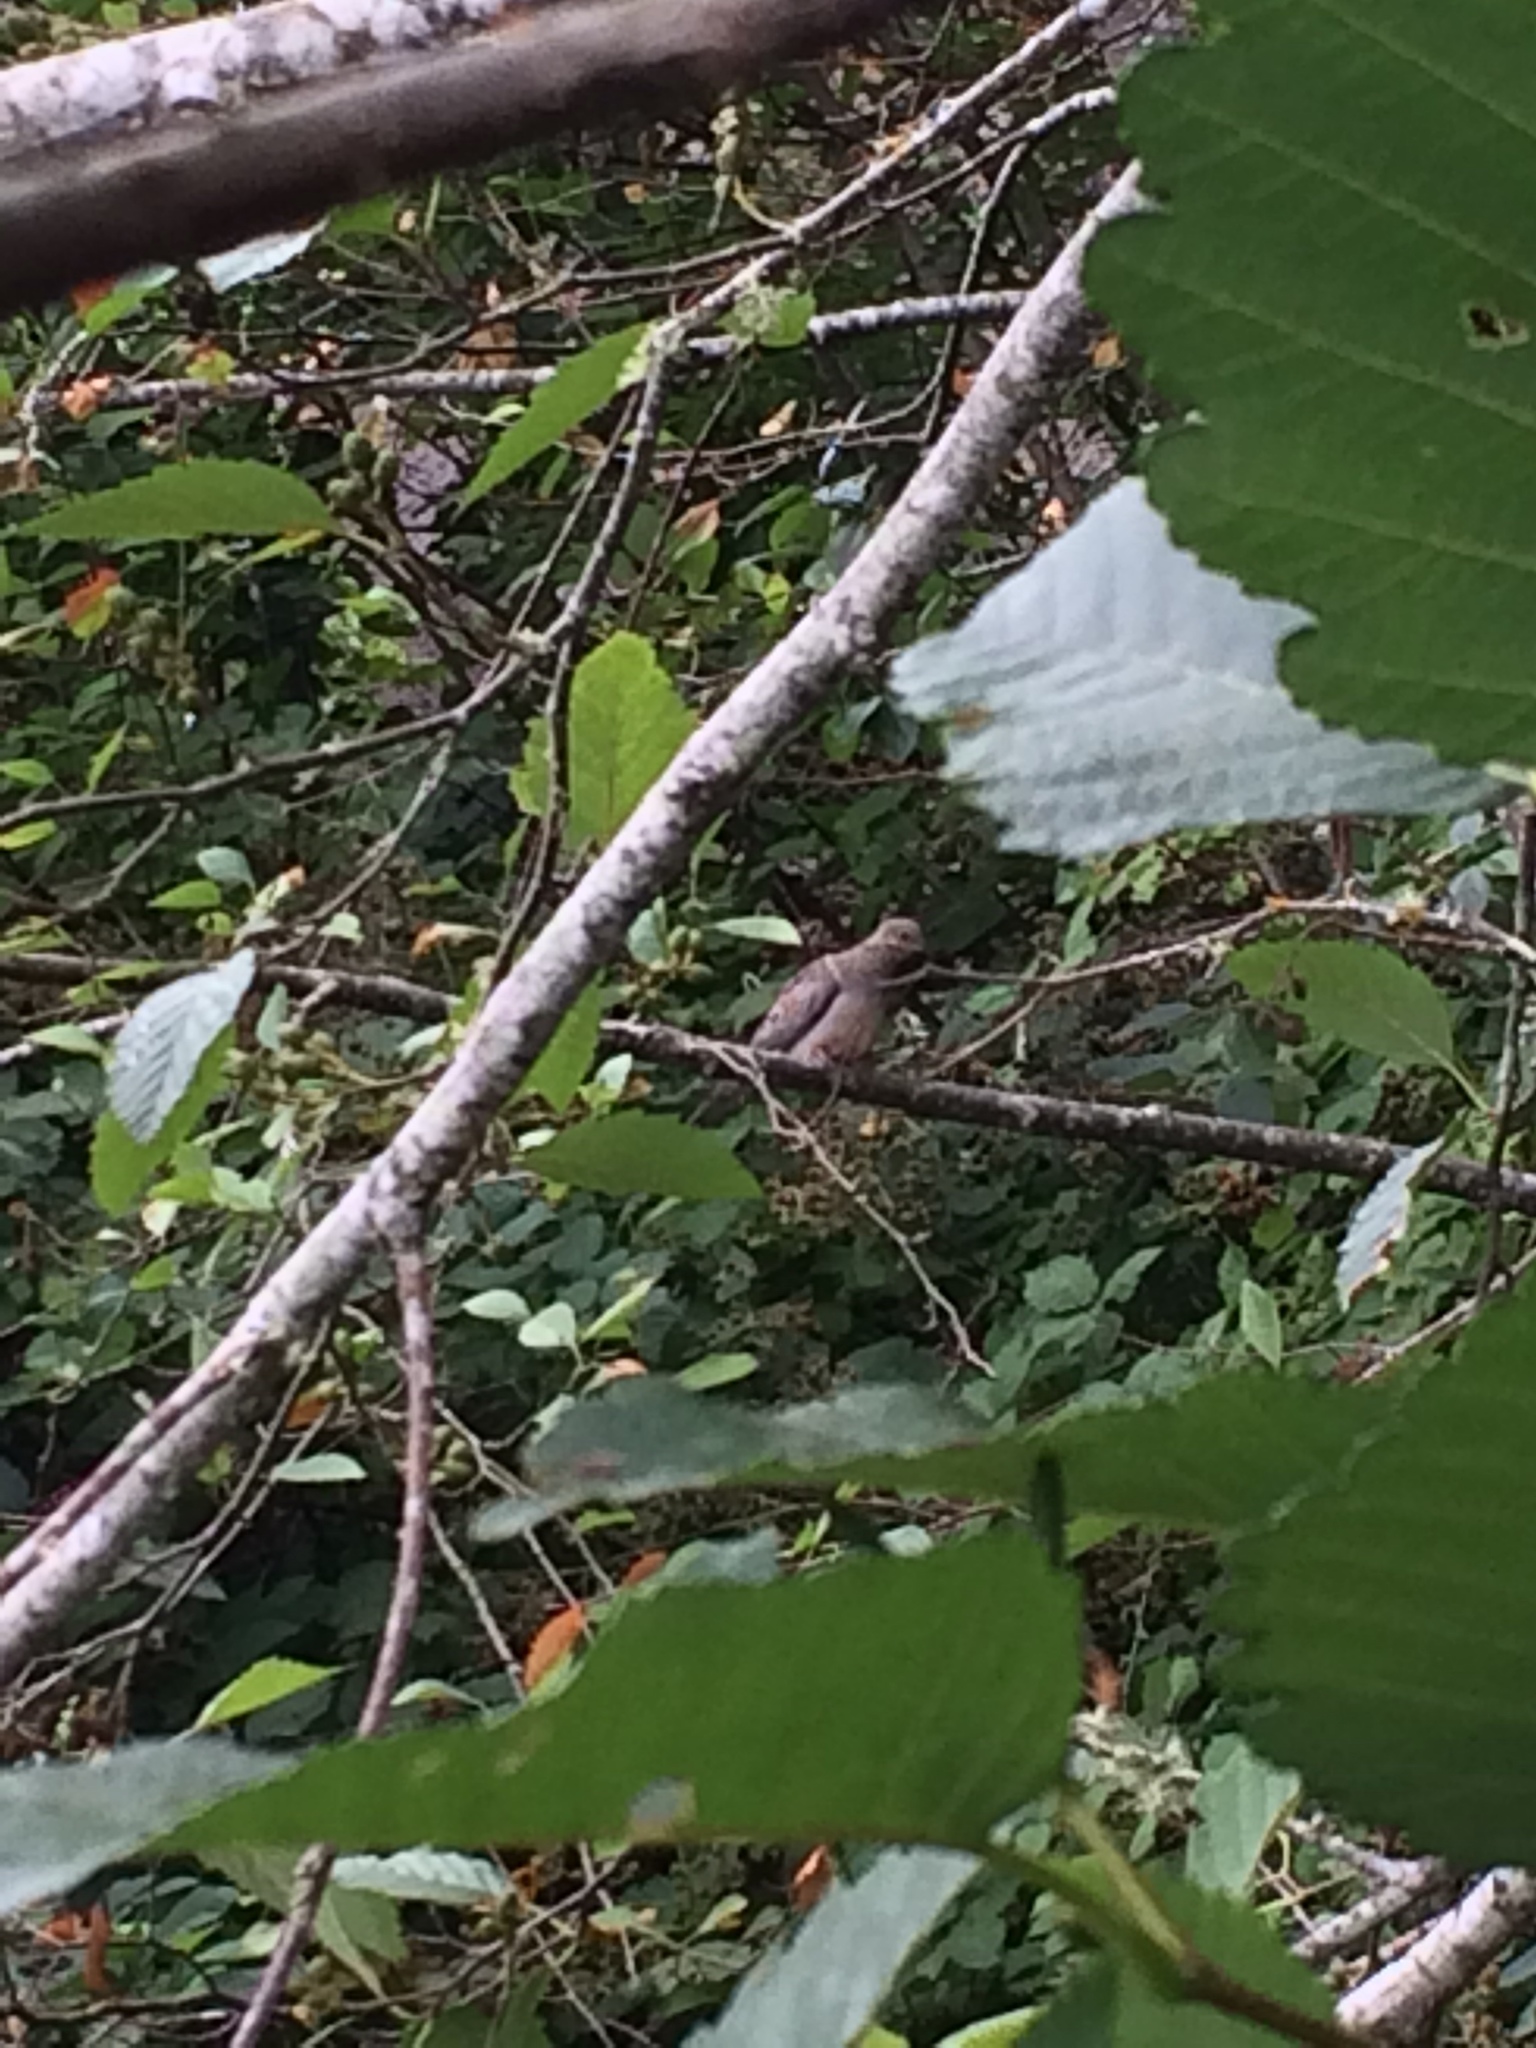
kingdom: Animalia
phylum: Chordata
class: Aves
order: Columbiformes
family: Columbidae
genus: Zenaida
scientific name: Zenaida macroura
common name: Mourning dove
